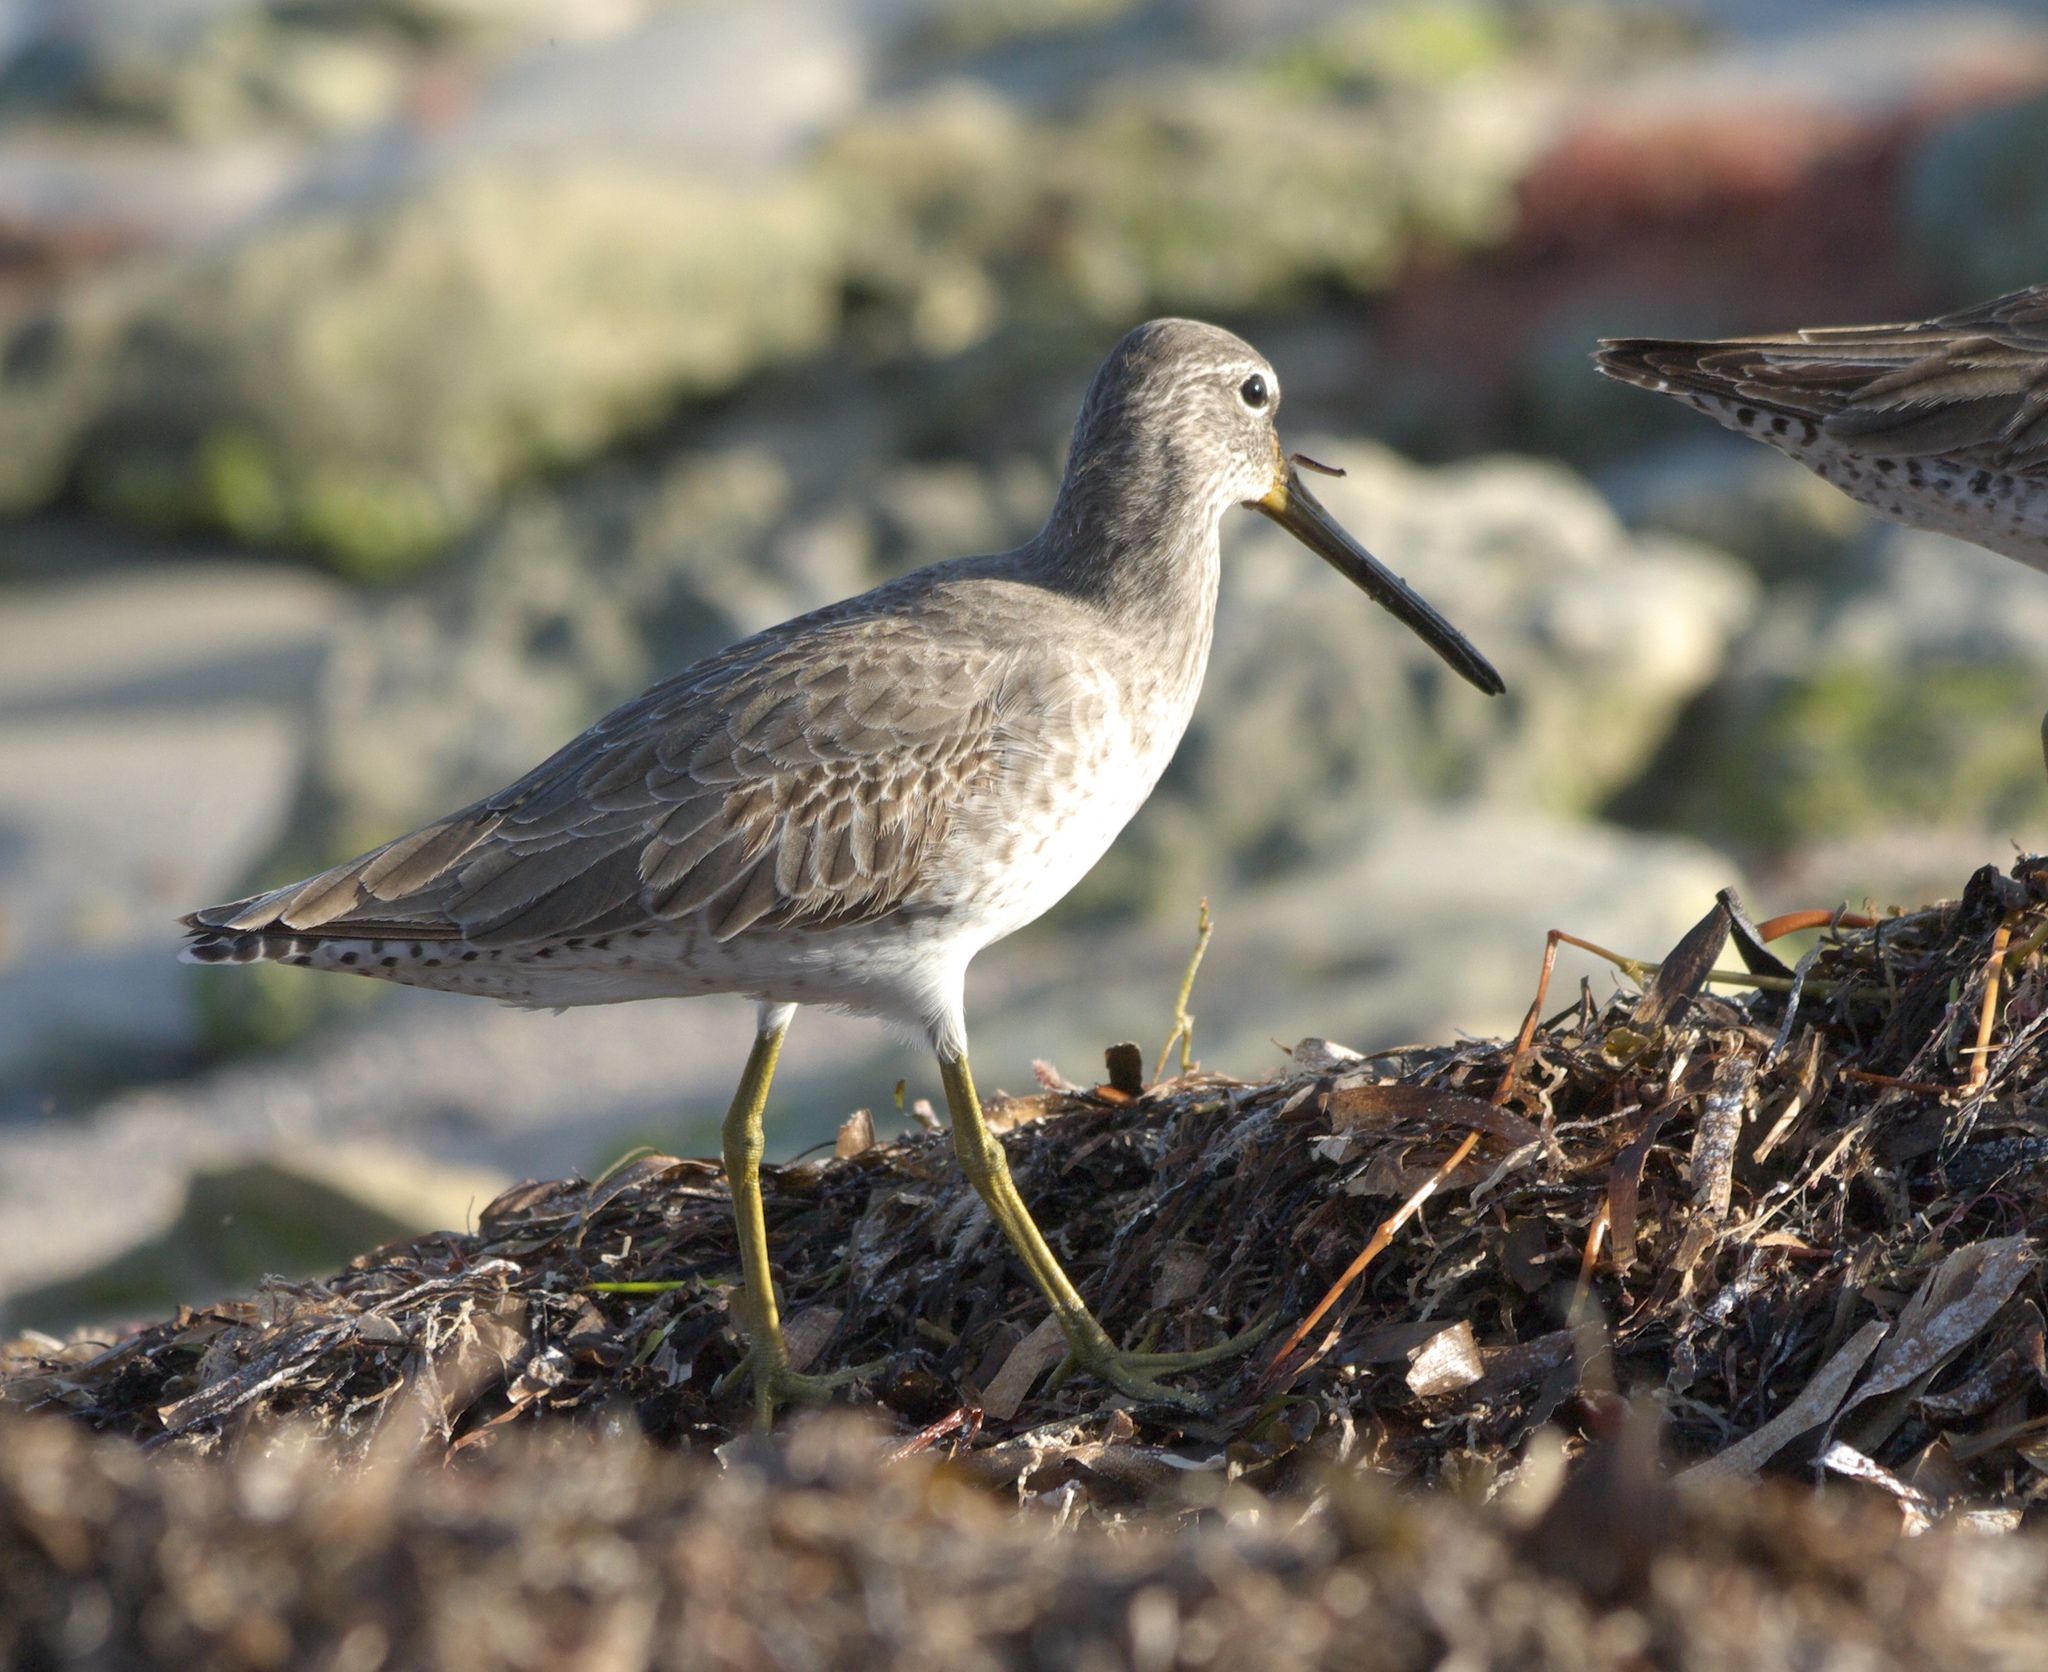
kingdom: Animalia
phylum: Chordata
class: Aves
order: Charadriiformes
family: Scolopacidae
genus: Limnodromus
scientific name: Limnodromus griseus
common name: Short-billed dowitcher
